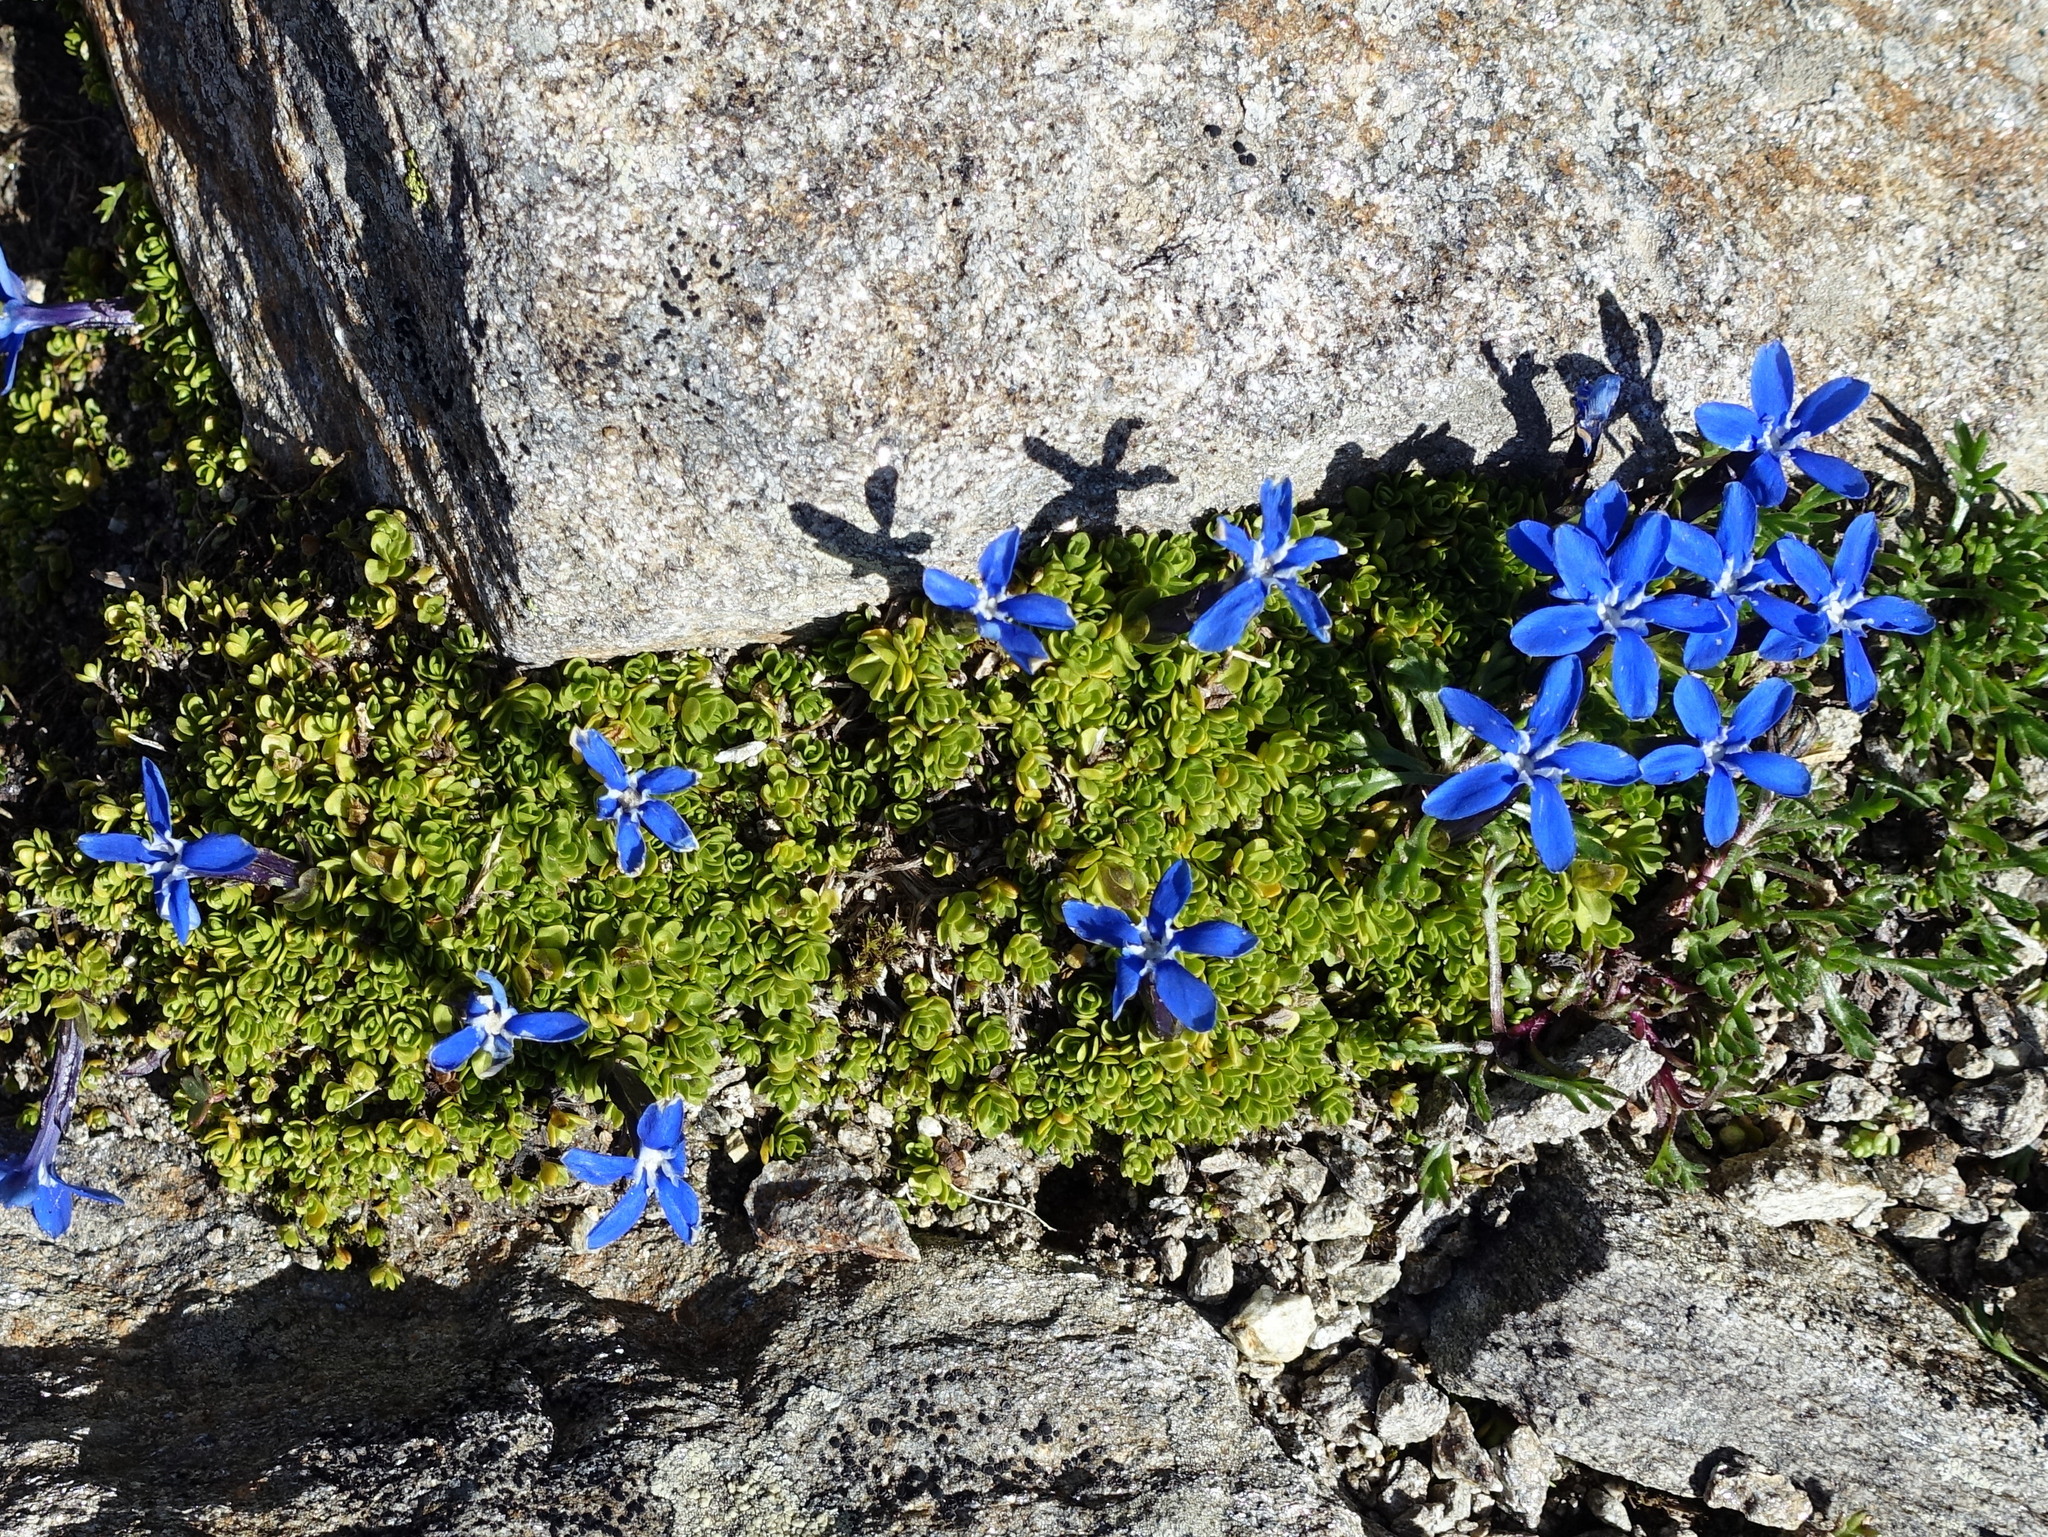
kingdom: Plantae
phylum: Tracheophyta
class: Magnoliopsida
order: Gentianales
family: Gentianaceae
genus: Gentiana
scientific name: Gentiana bavarica
